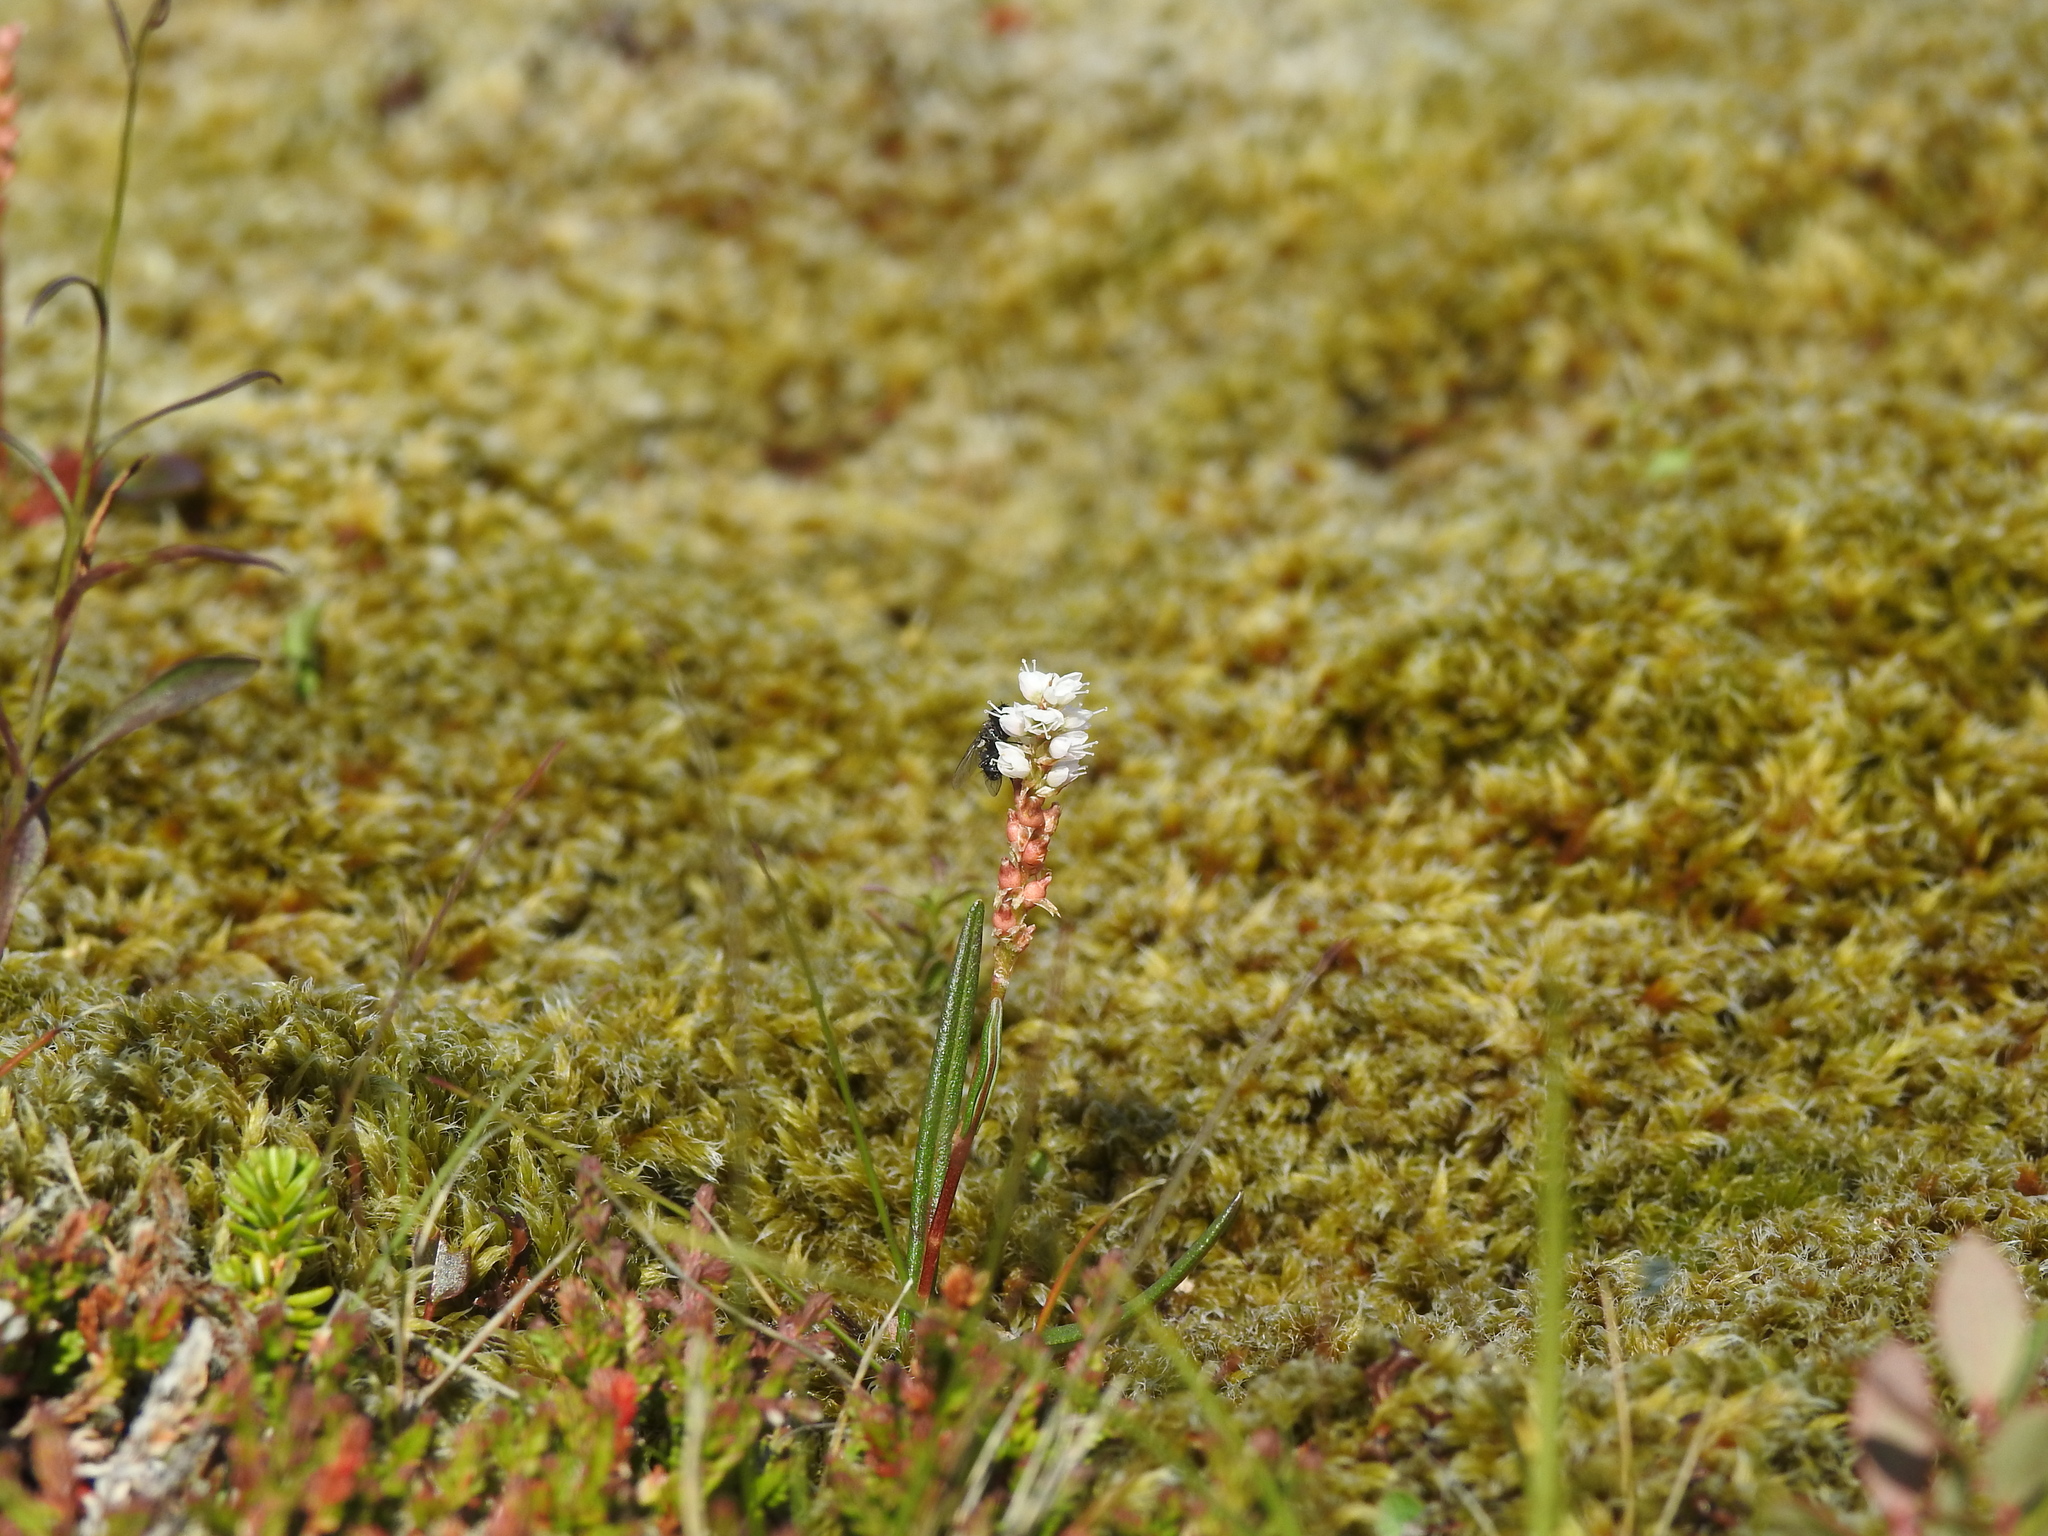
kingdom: Plantae
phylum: Tracheophyta
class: Magnoliopsida
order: Caryophyllales
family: Polygonaceae
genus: Bistorta
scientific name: Bistorta vivipara
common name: Alpine bistort
